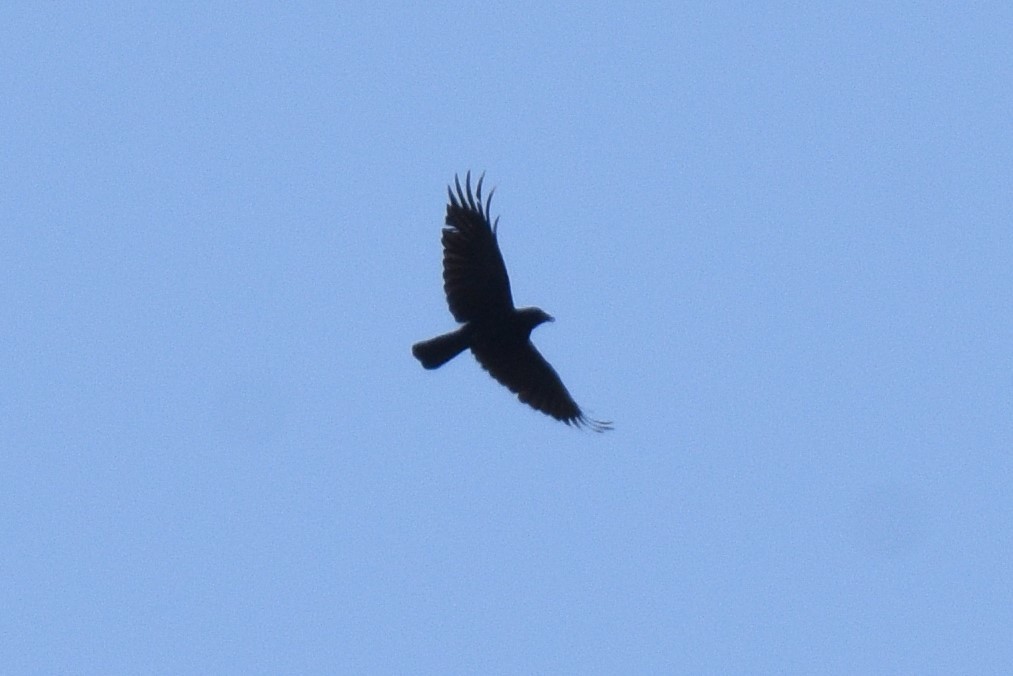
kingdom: Animalia
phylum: Chordata
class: Aves
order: Passeriformes
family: Corvidae
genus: Corvus
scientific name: Corvus brachyrhynchos
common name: American crow
